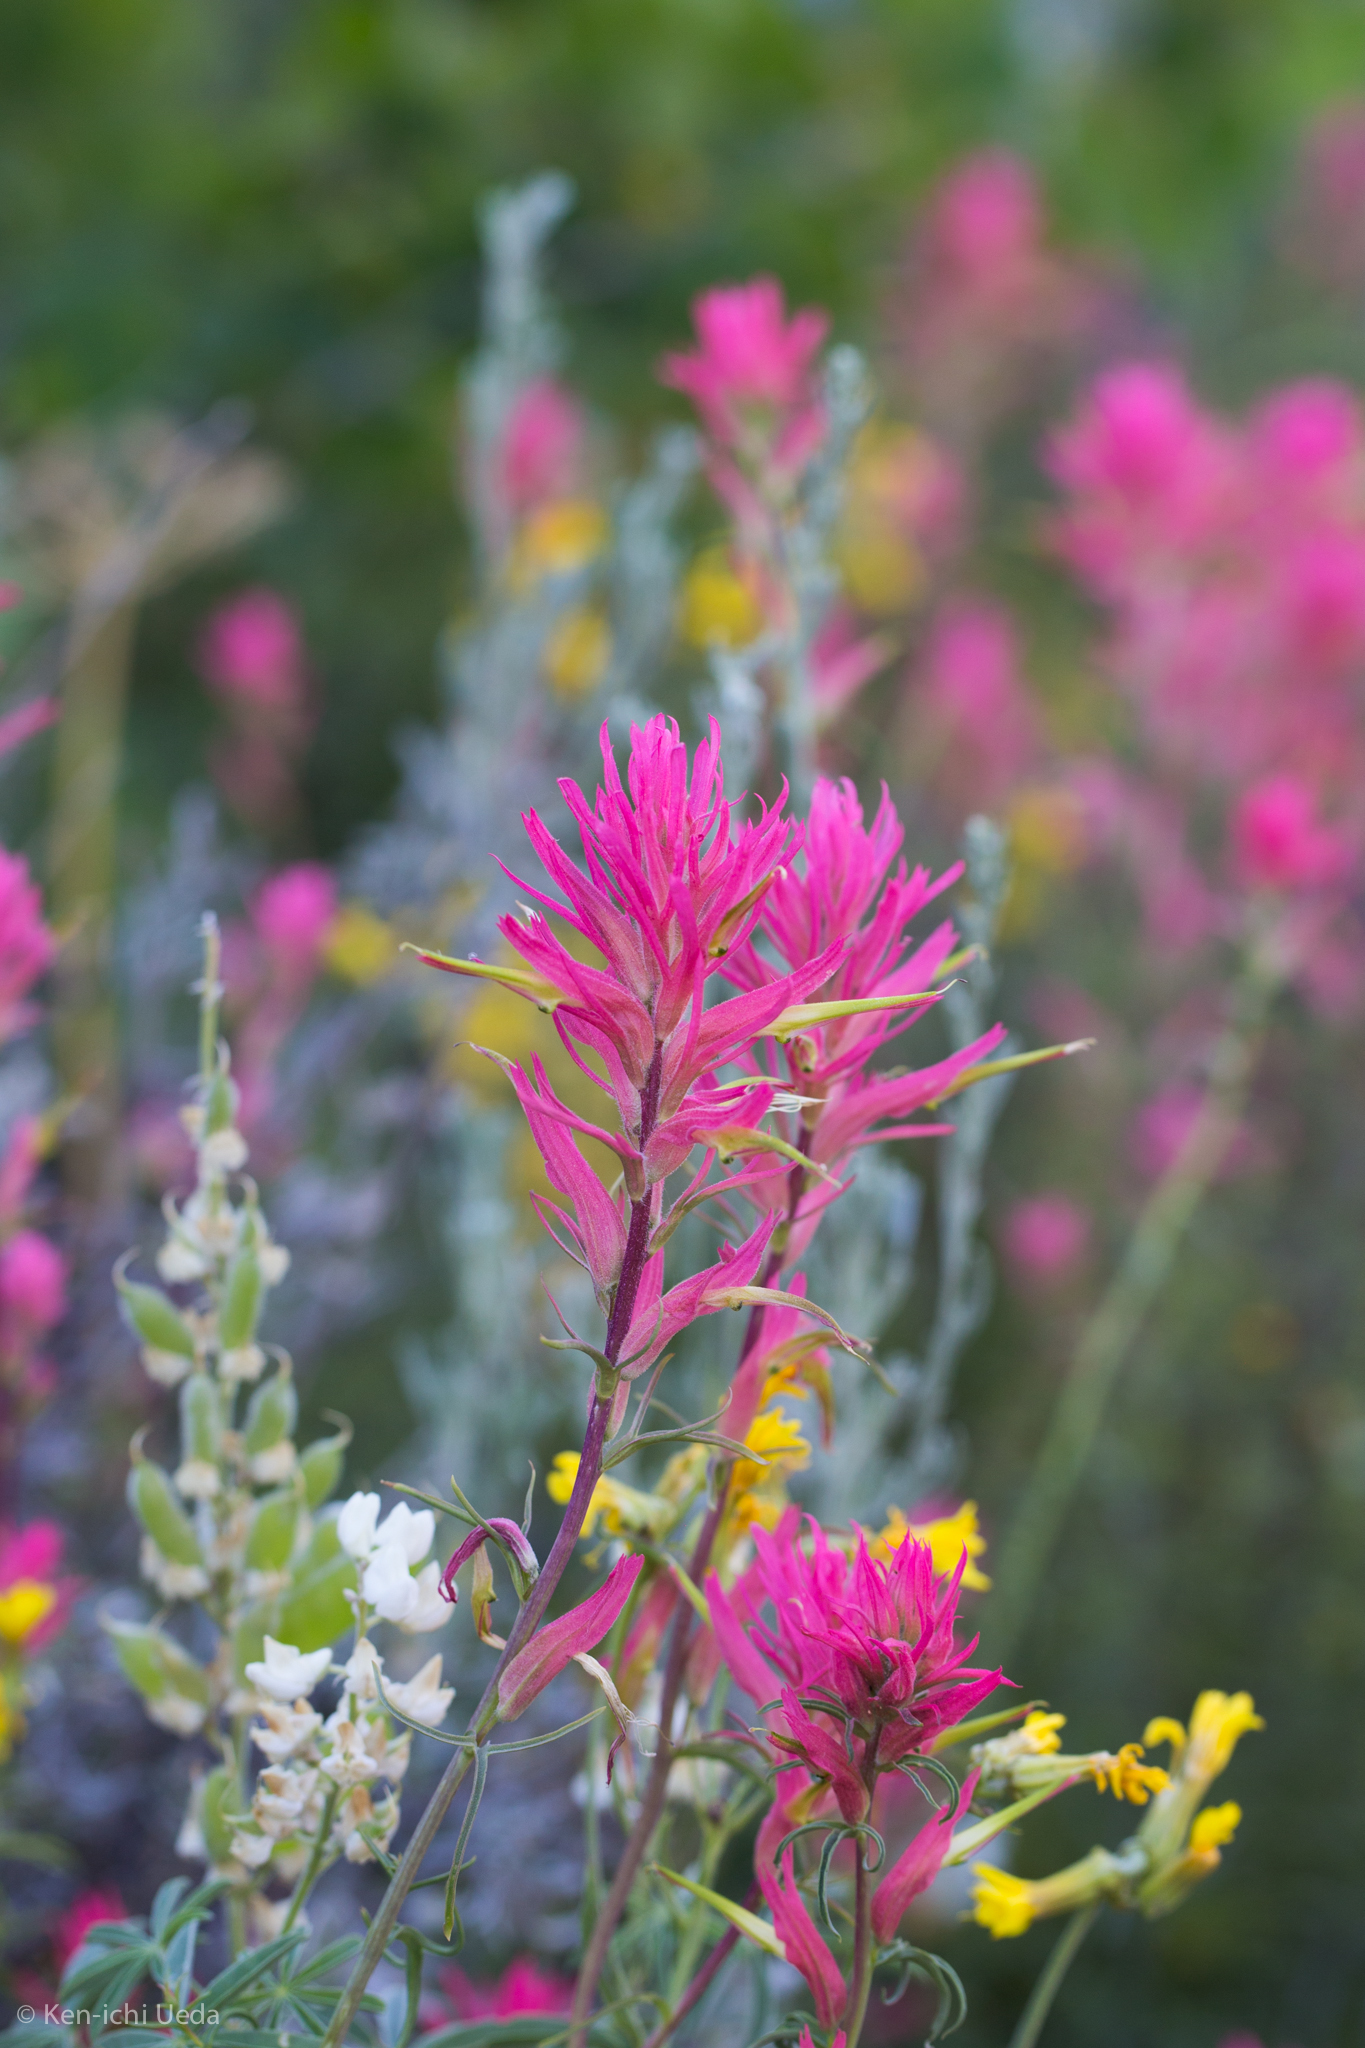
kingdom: Plantae
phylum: Tracheophyta
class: Magnoliopsida
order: Lamiales
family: Orobanchaceae
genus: Castilleja
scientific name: Castilleja linariifolia
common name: Wyoming paintbrush
